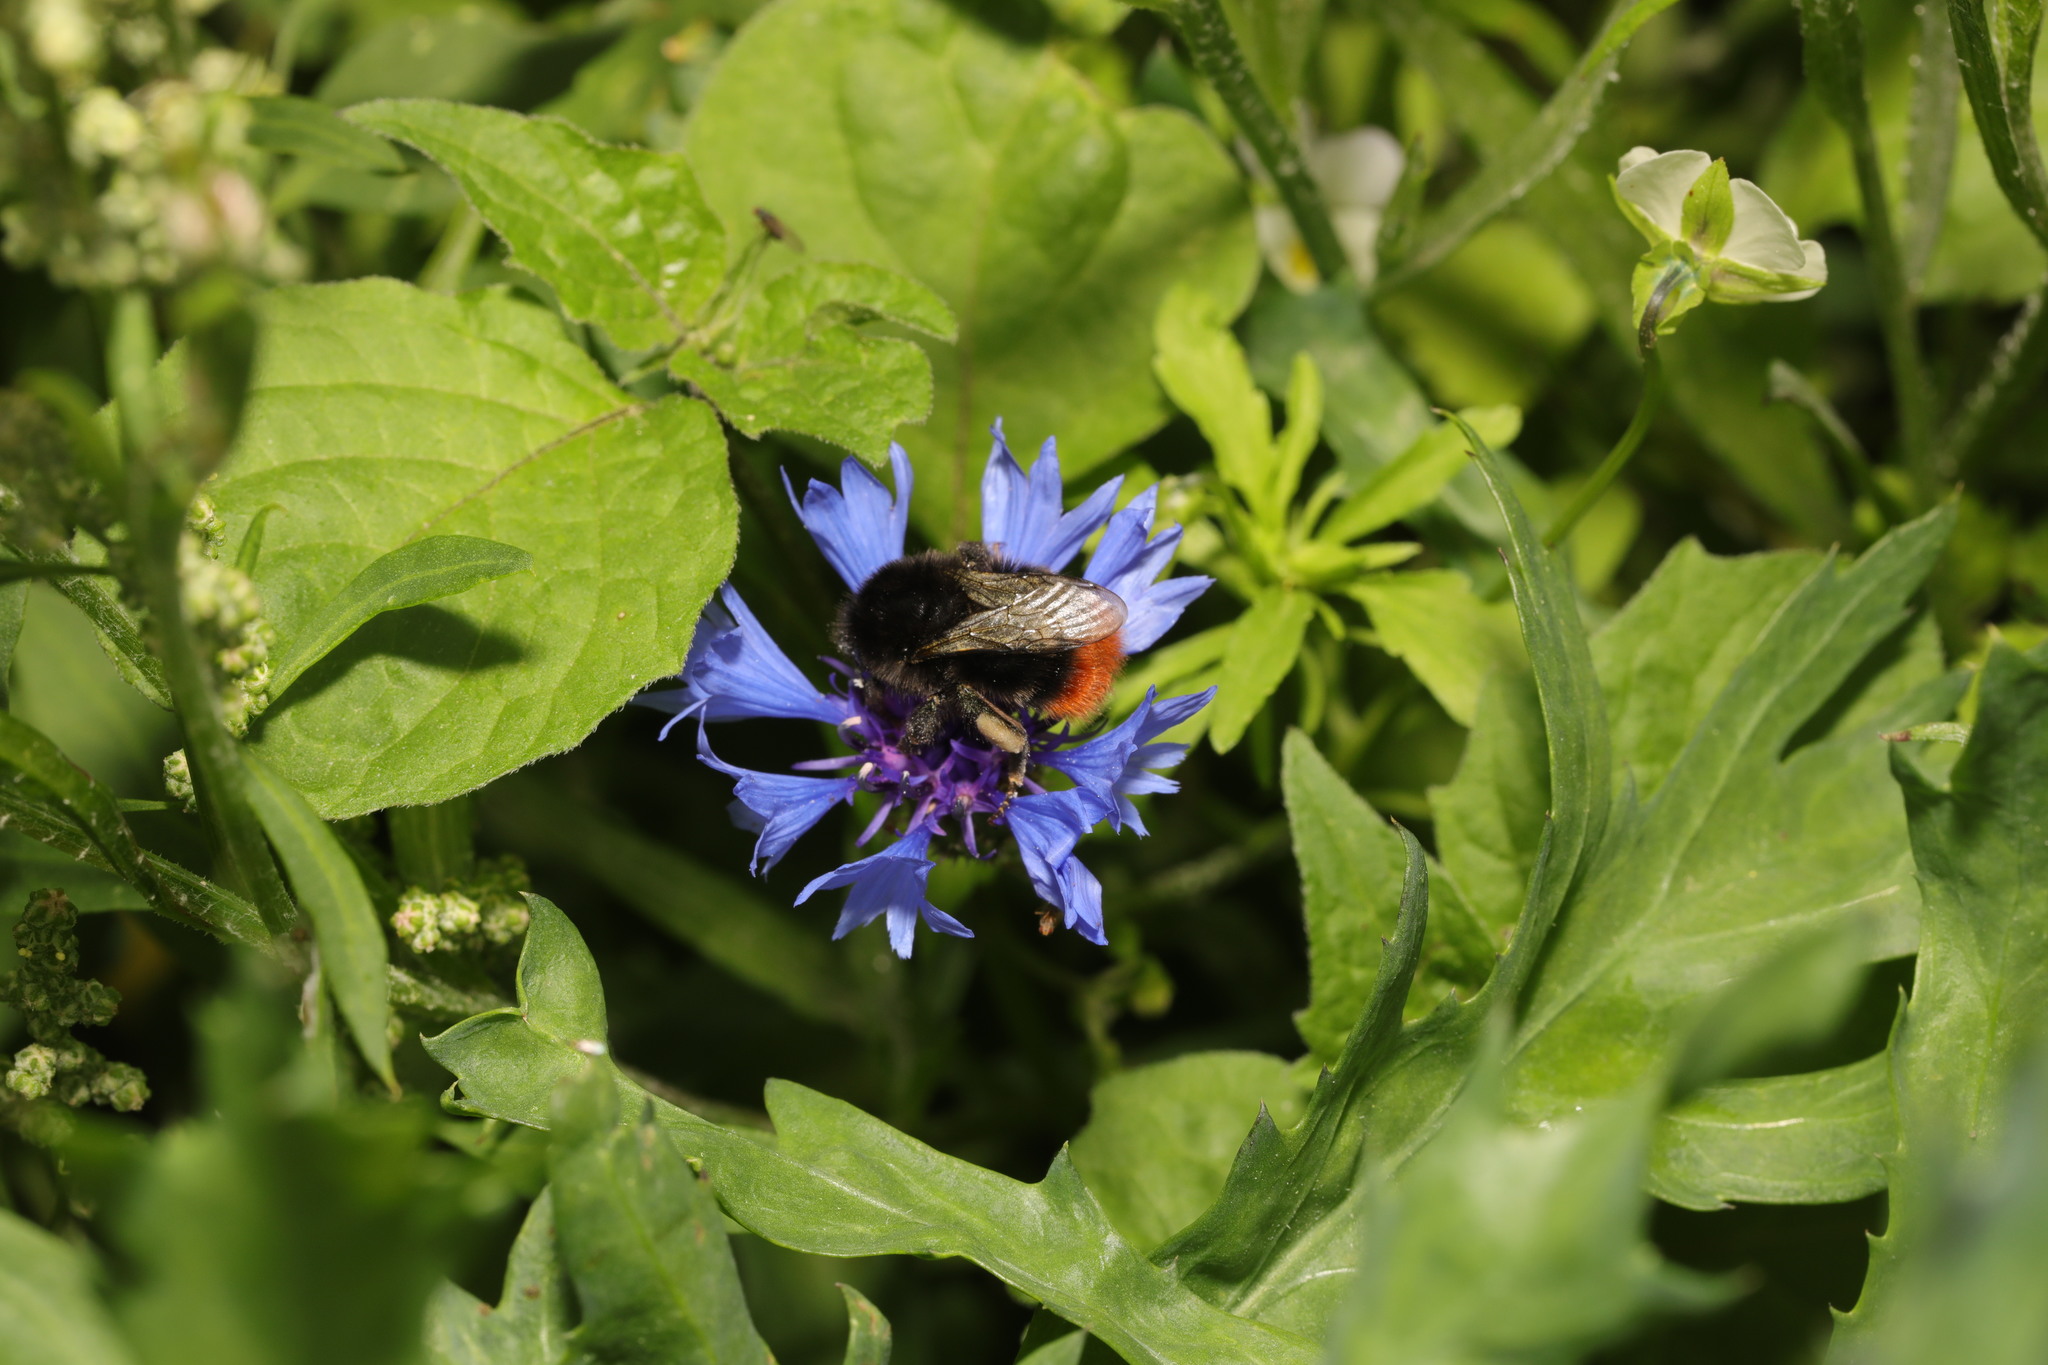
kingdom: Plantae
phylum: Tracheophyta
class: Magnoliopsida
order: Asterales
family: Asteraceae
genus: Centaurea
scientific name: Centaurea cyanus
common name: Cornflower
